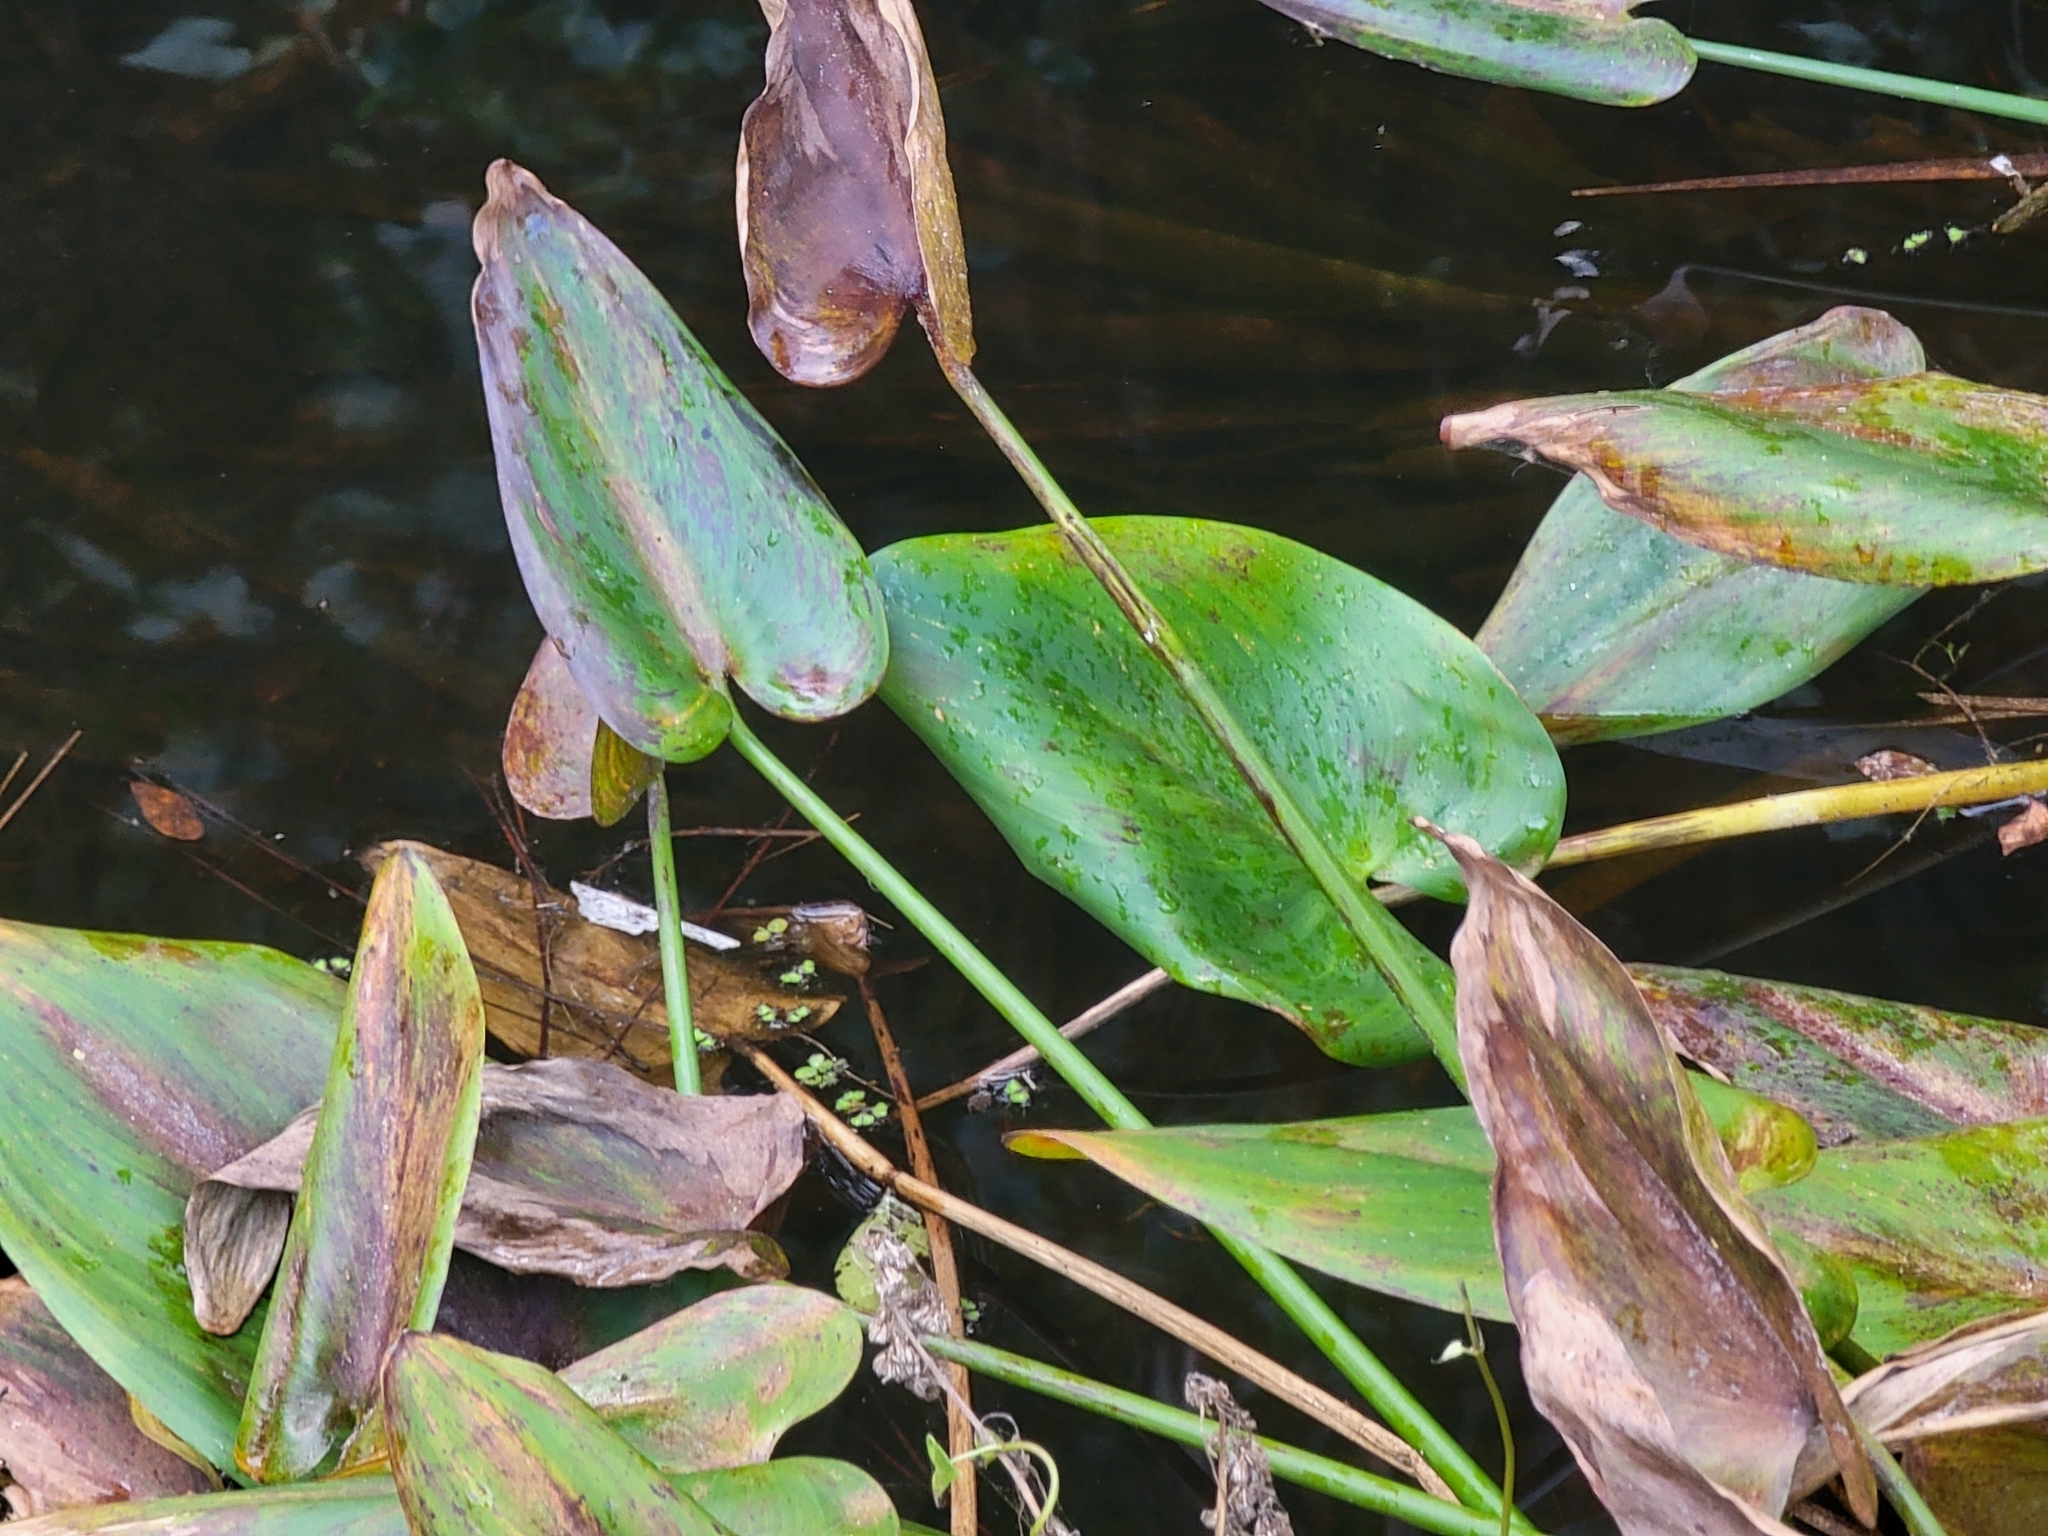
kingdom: Plantae
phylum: Tracheophyta
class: Liliopsida
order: Commelinales
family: Pontederiaceae
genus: Pontederia
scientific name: Pontederia cordata
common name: Pickerelweed
